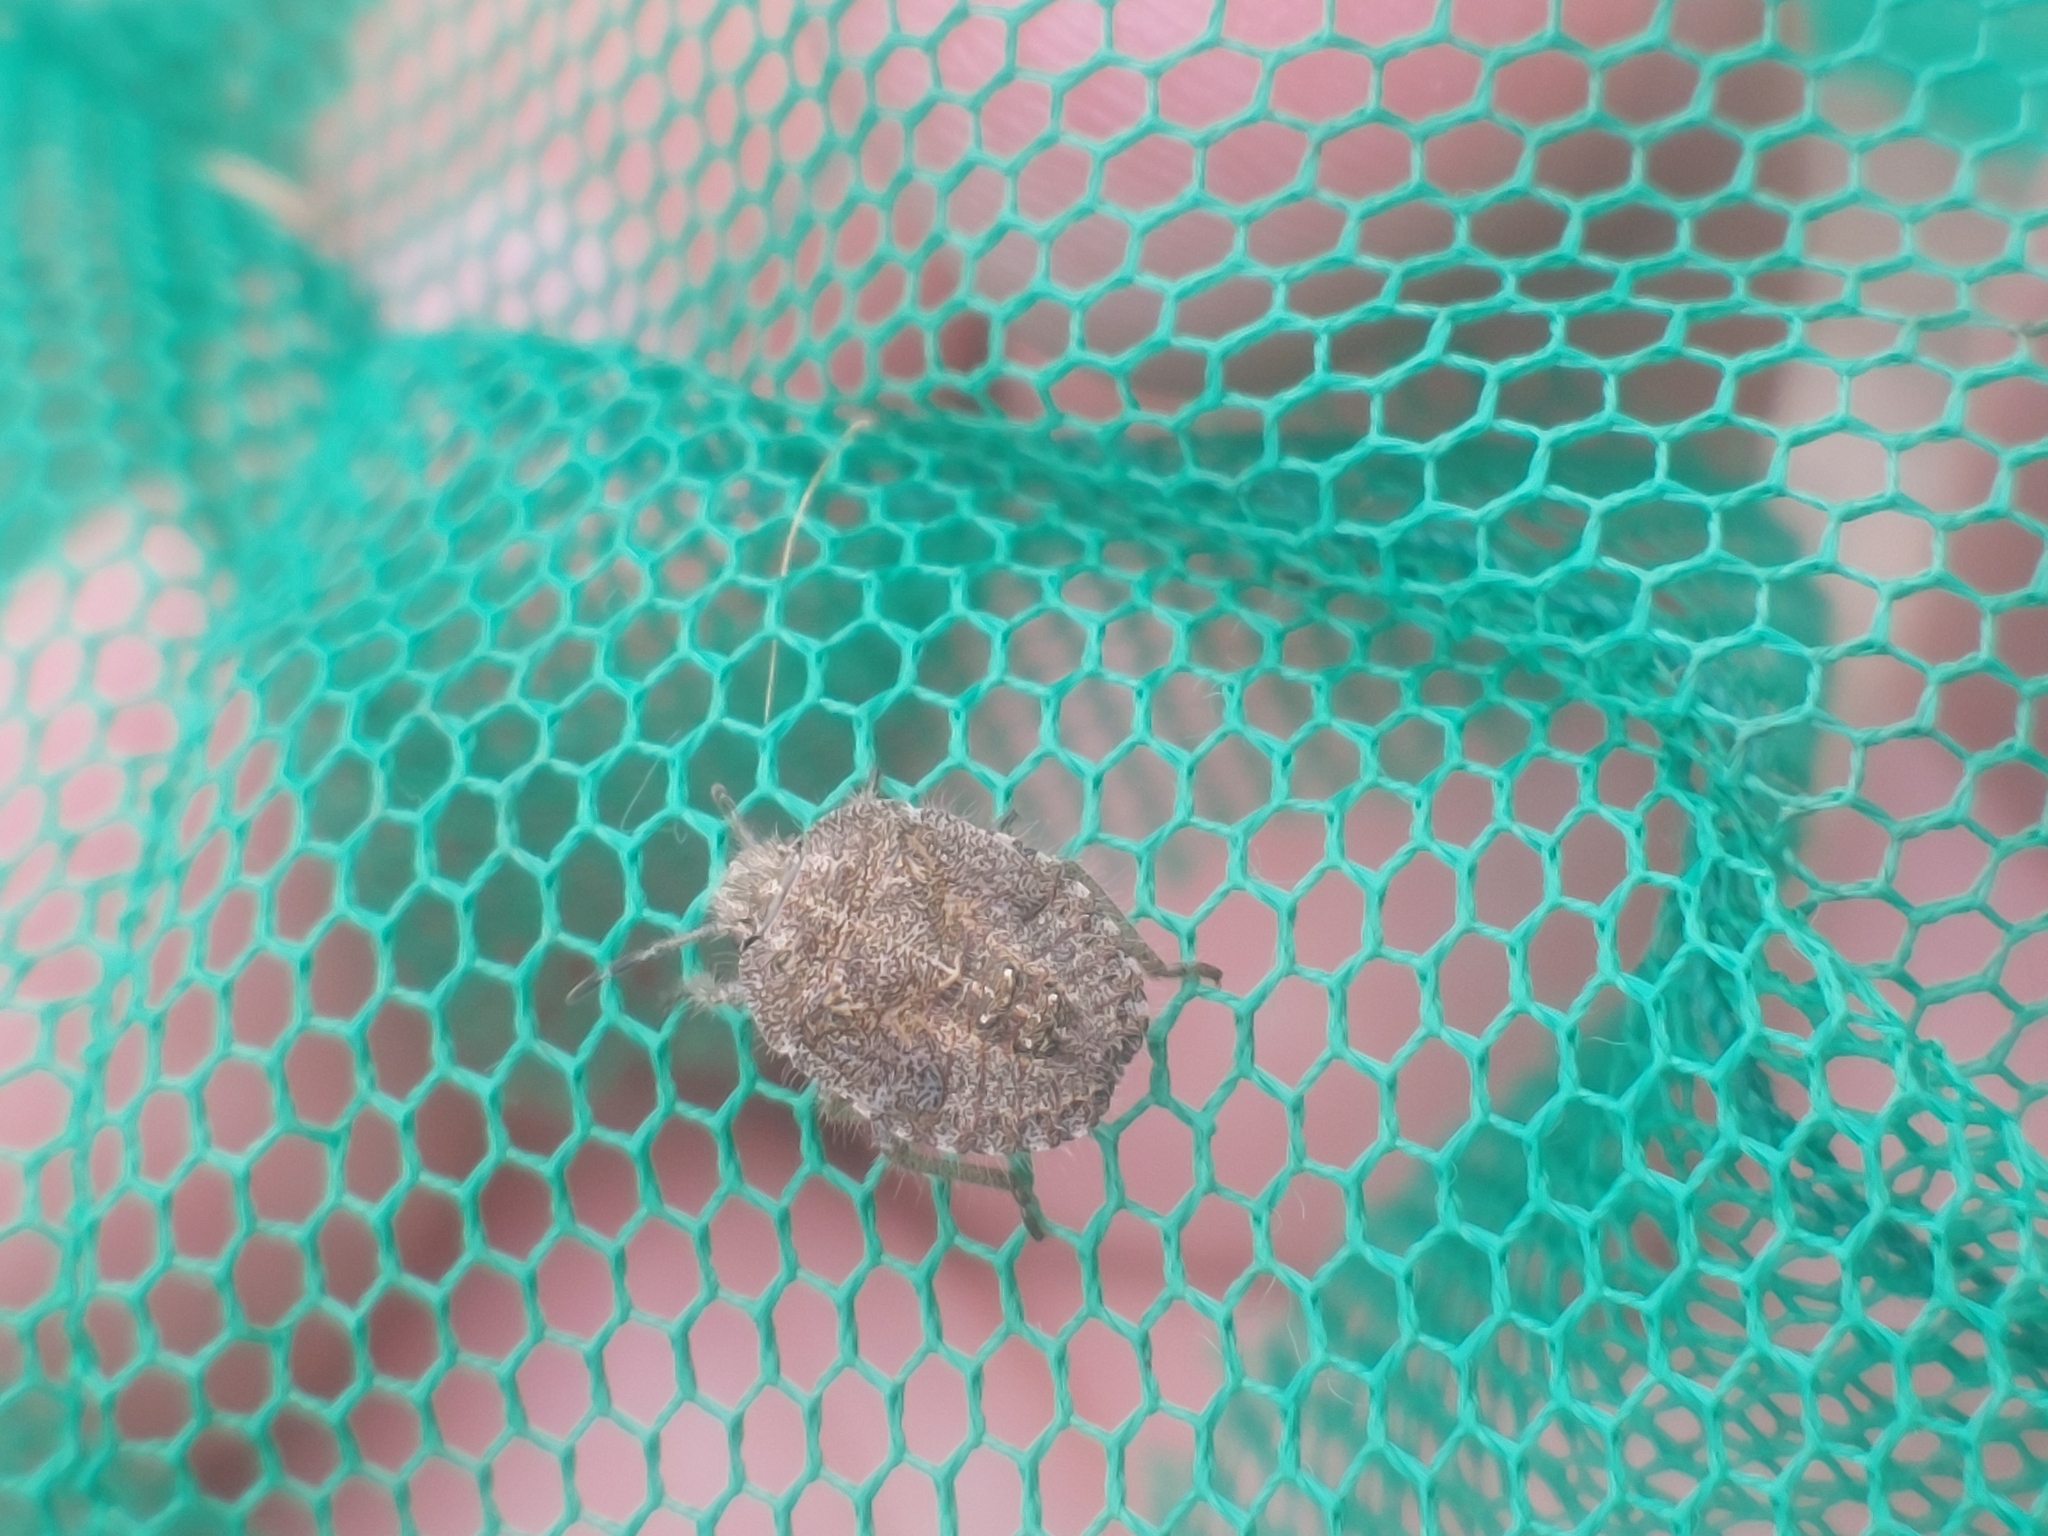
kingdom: Animalia
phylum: Arthropoda
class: Insecta
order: Hemiptera
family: Pentatomidae
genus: Dolycoris
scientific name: Dolycoris baccarum
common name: Sloe bug
